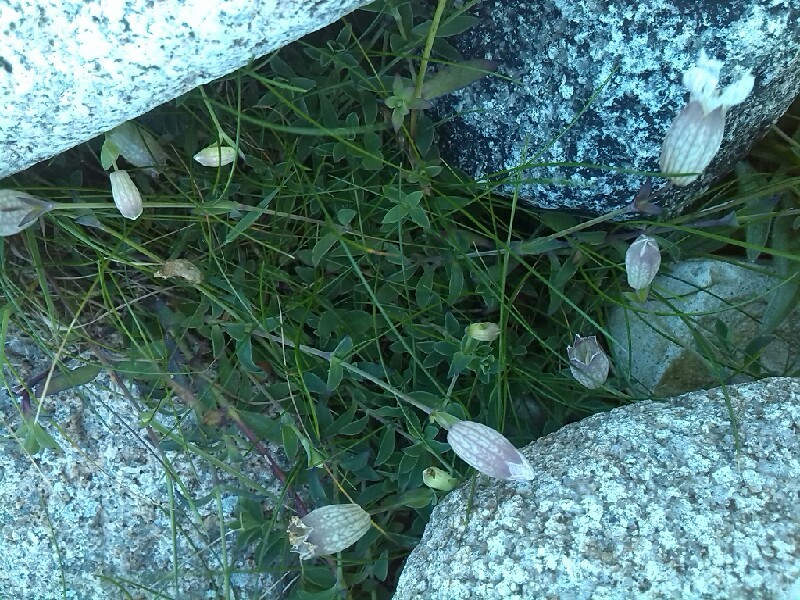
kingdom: Plantae
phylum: Tracheophyta
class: Magnoliopsida
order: Caryophyllales
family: Caryophyllaceae
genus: Silene
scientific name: Silene uniflora
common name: Sea campion
